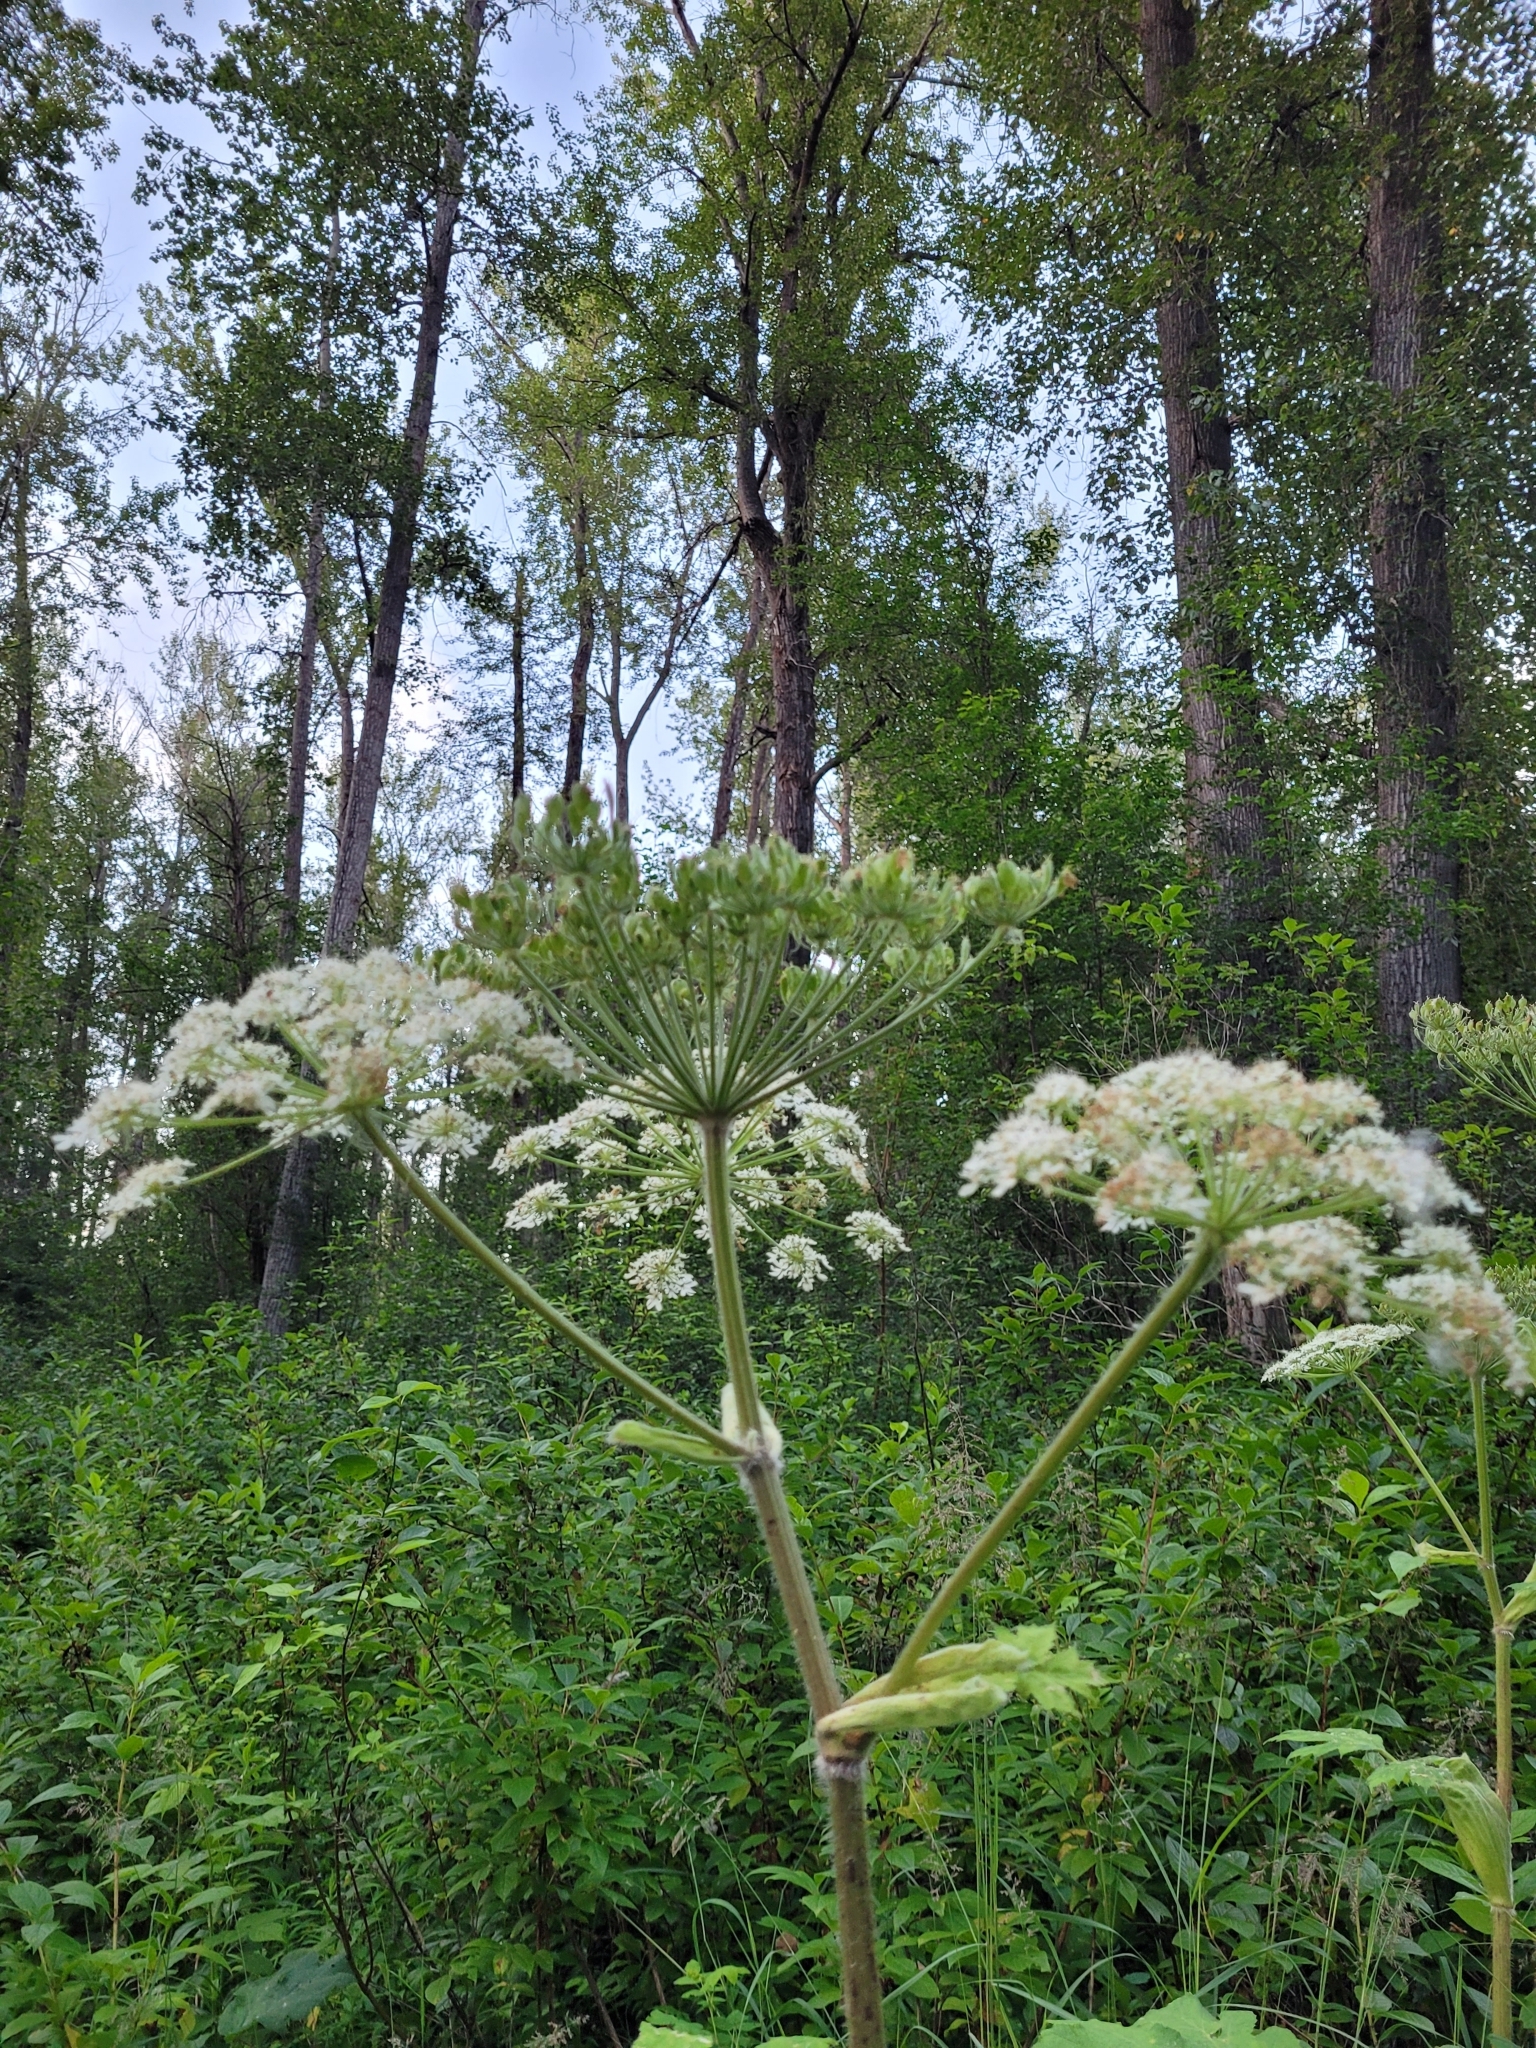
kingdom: Plantae
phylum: Tracheophyta
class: Magnoliopsida
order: Apiales
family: Apiaceae
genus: Heracleum
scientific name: Heracleum maximum
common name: American cow parsnip
